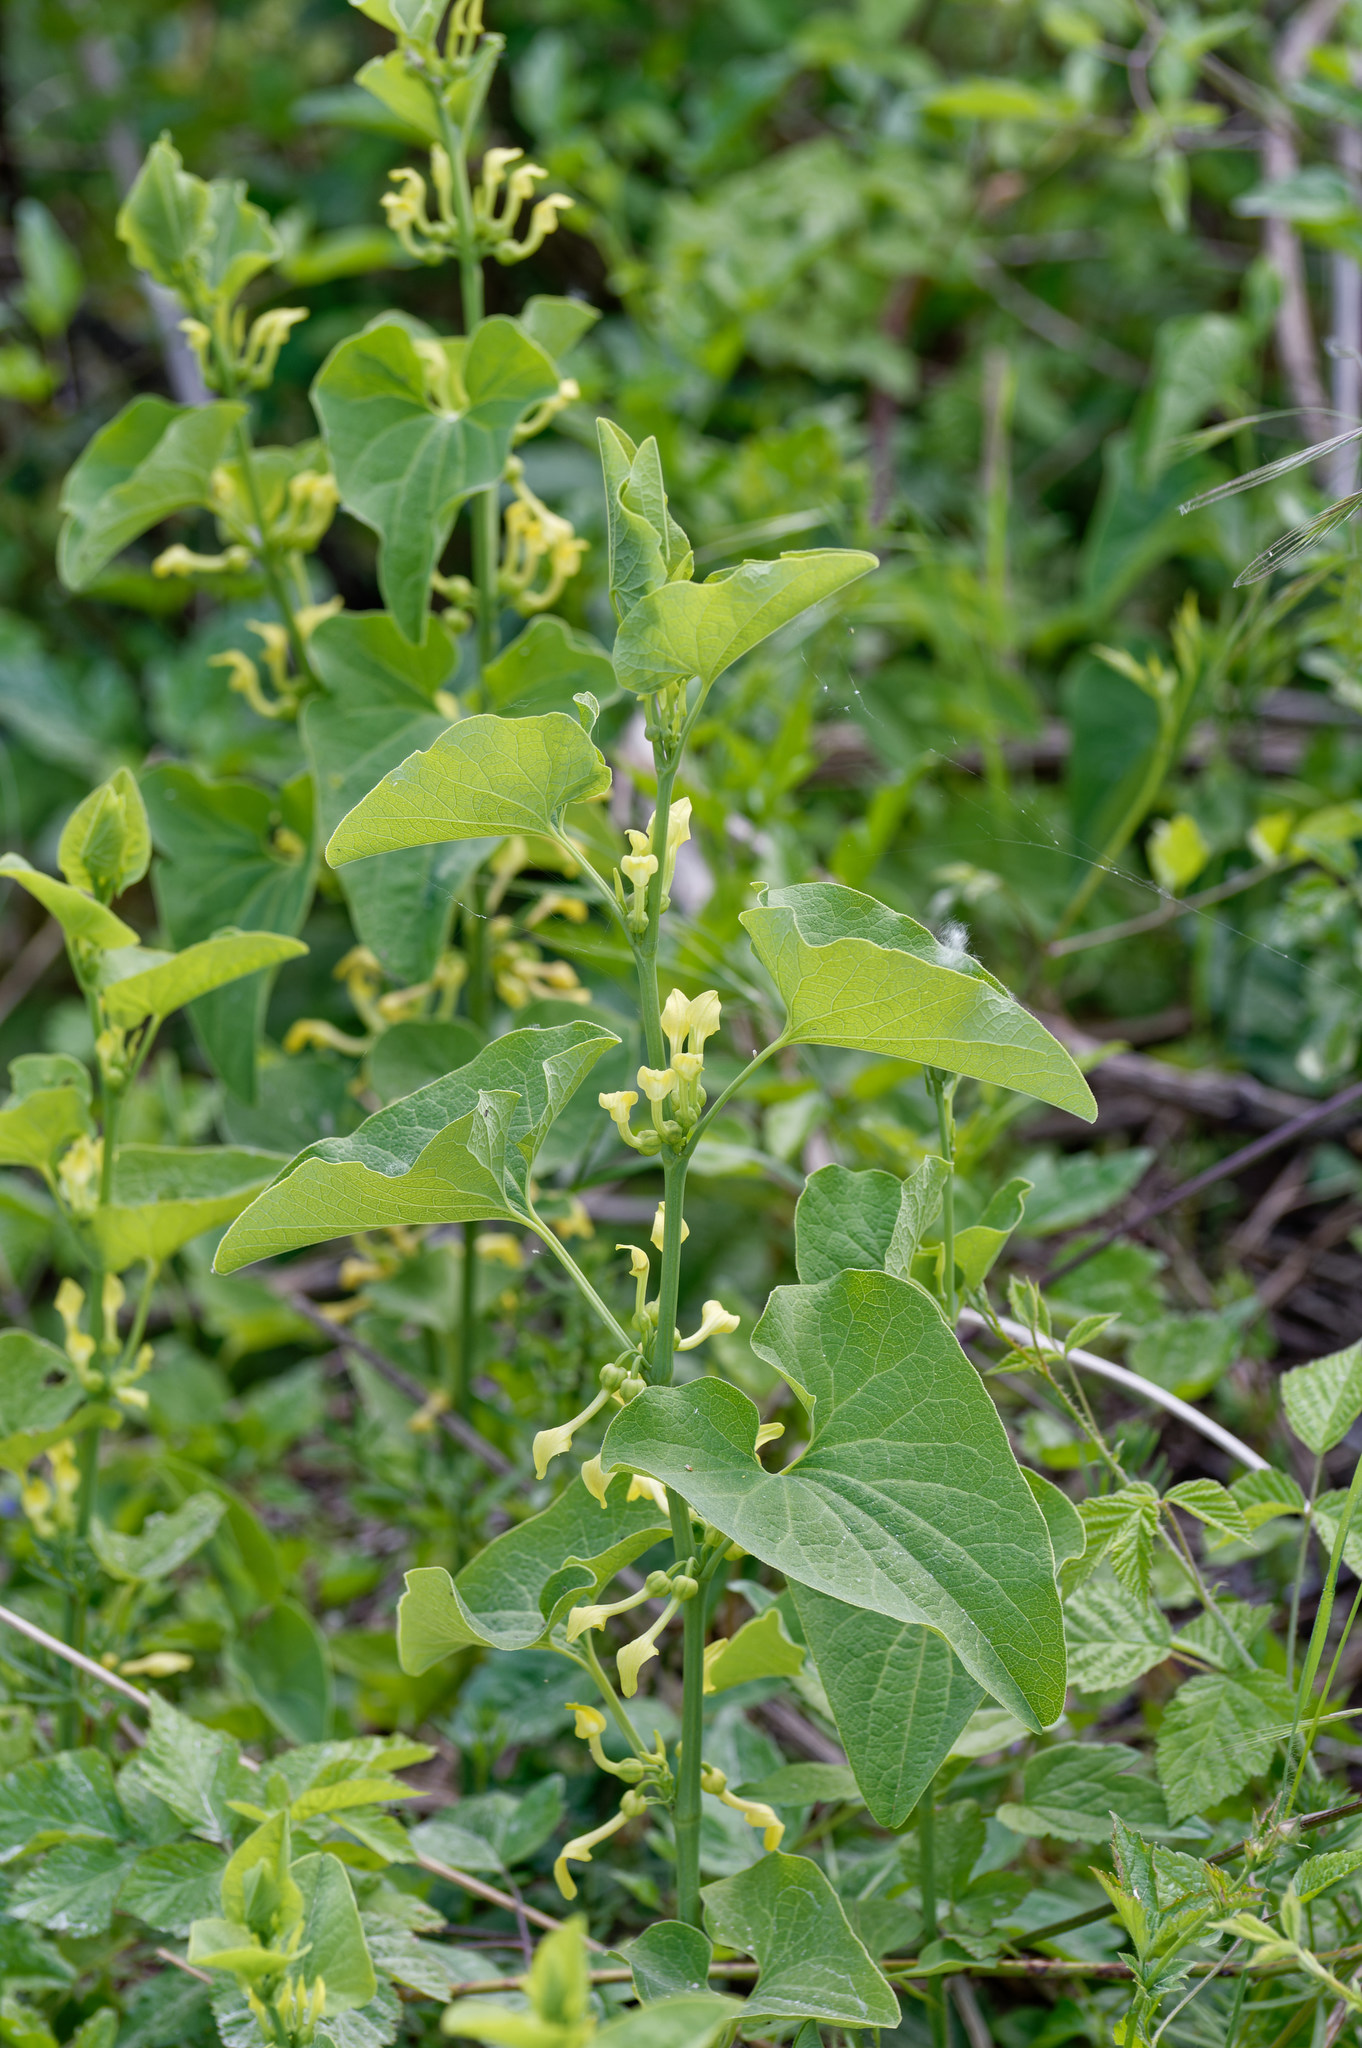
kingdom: Plantae
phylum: Tracheophyta
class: Magnoliopsida
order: Piperales
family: Aristolochiaceae
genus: Aristolochia
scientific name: Aristolochia clematitis
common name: Birthwort
